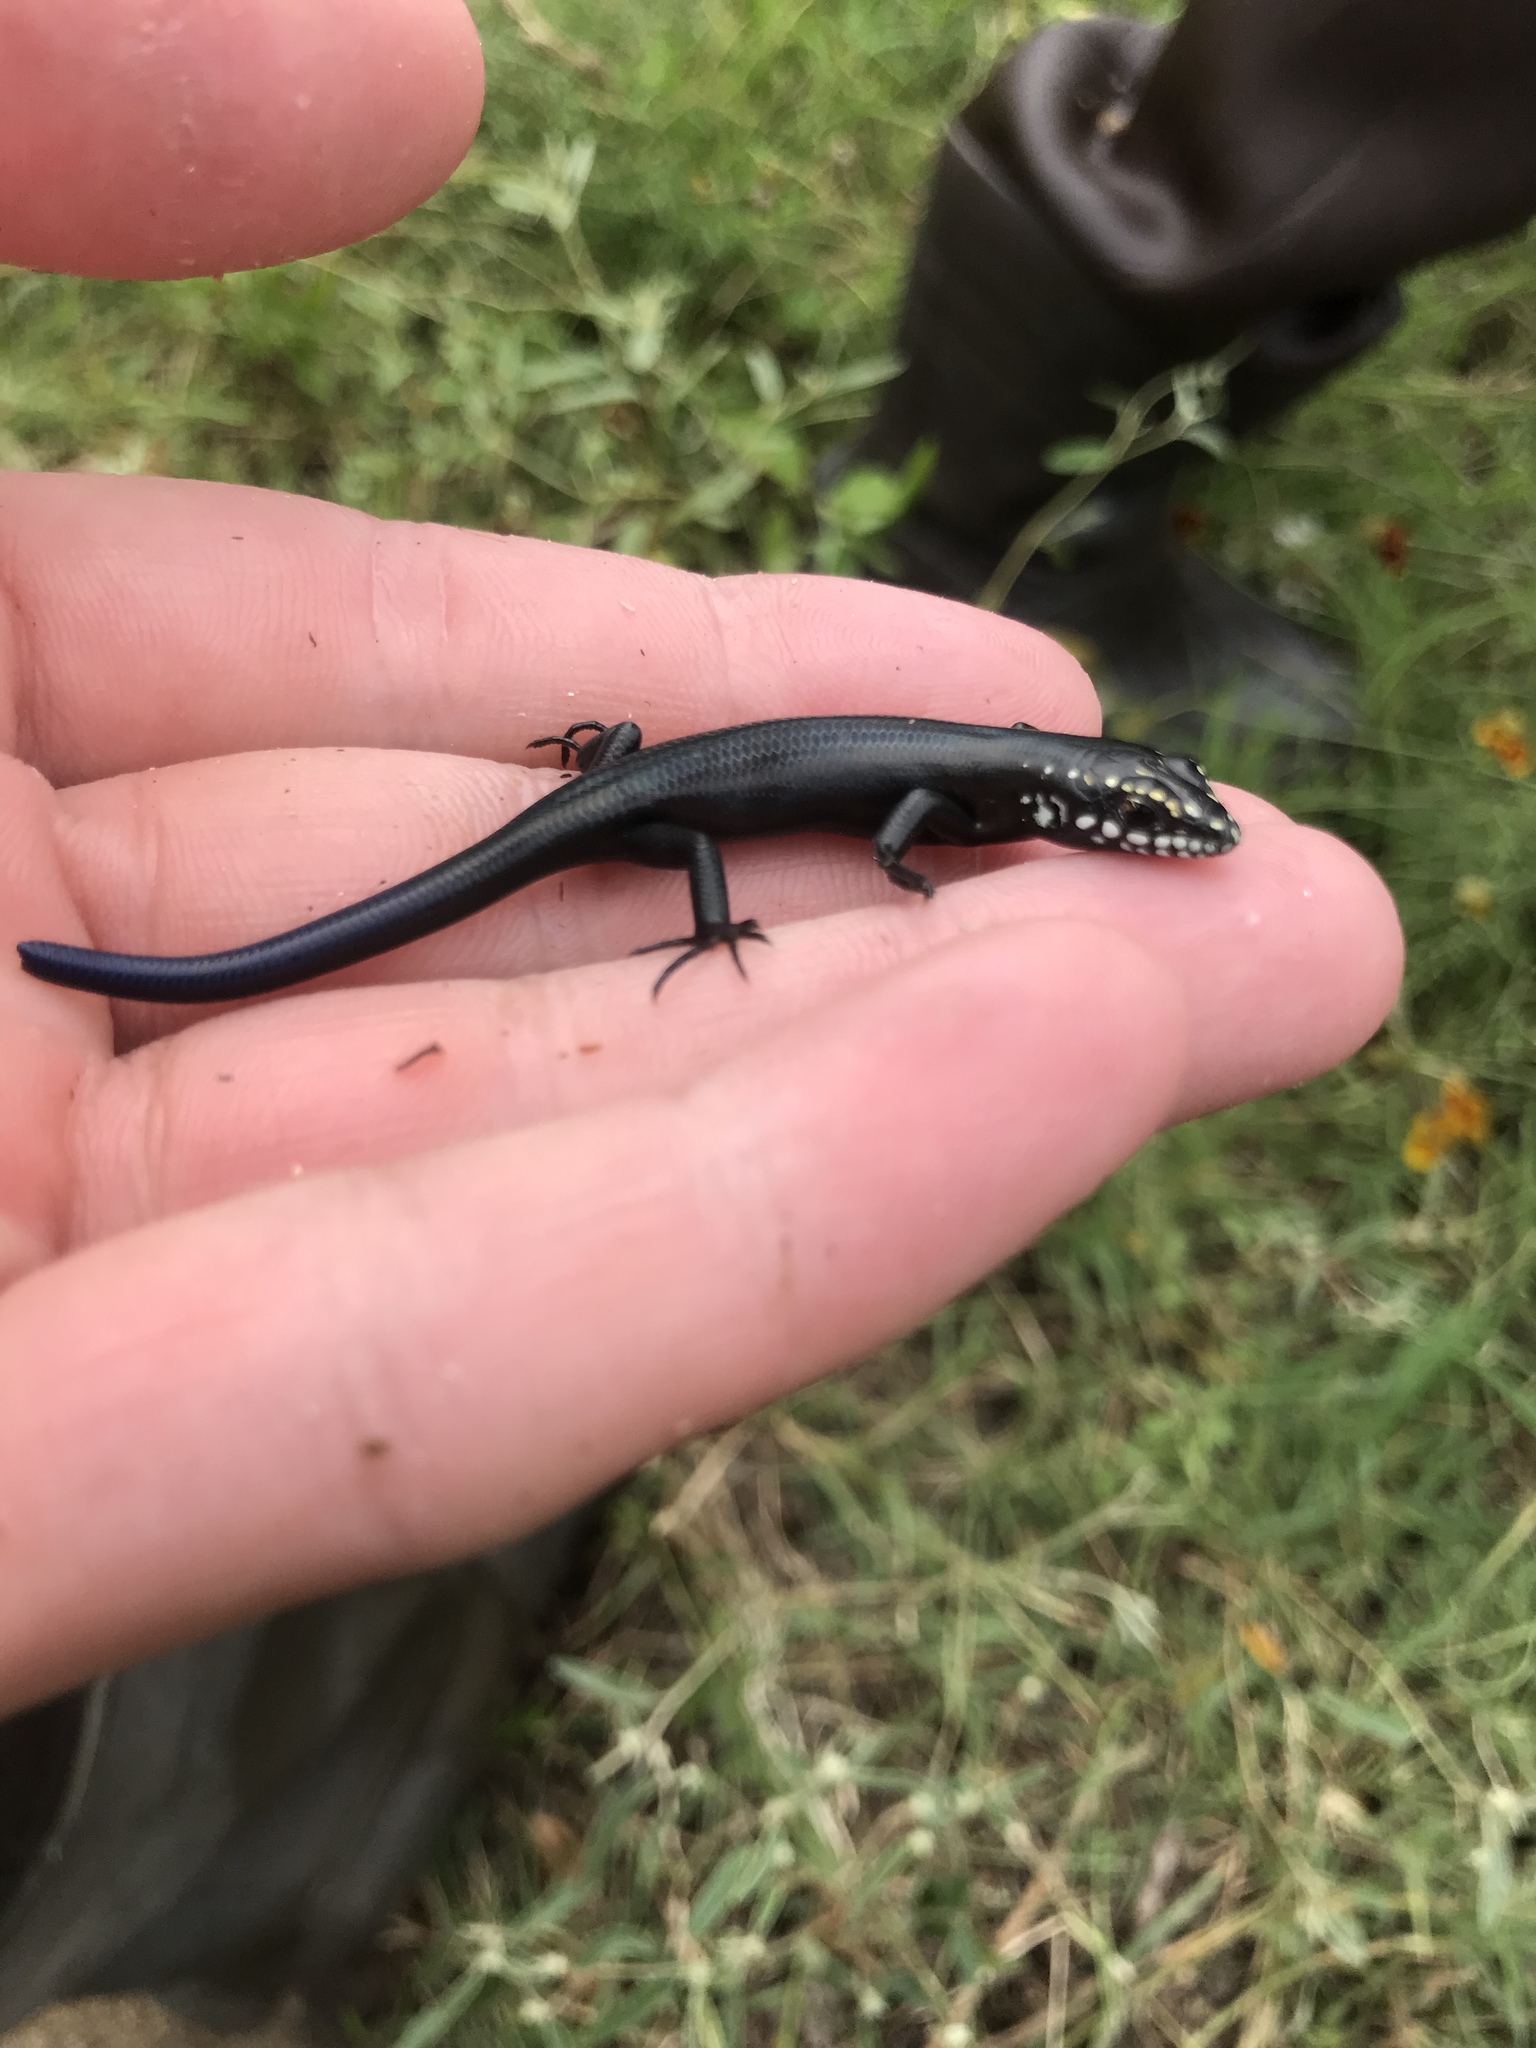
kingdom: Animalia
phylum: Chordata
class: Squamata
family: Scincidae
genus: Plestiodon
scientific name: Plestiodon obsoletus
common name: Great plains skink
